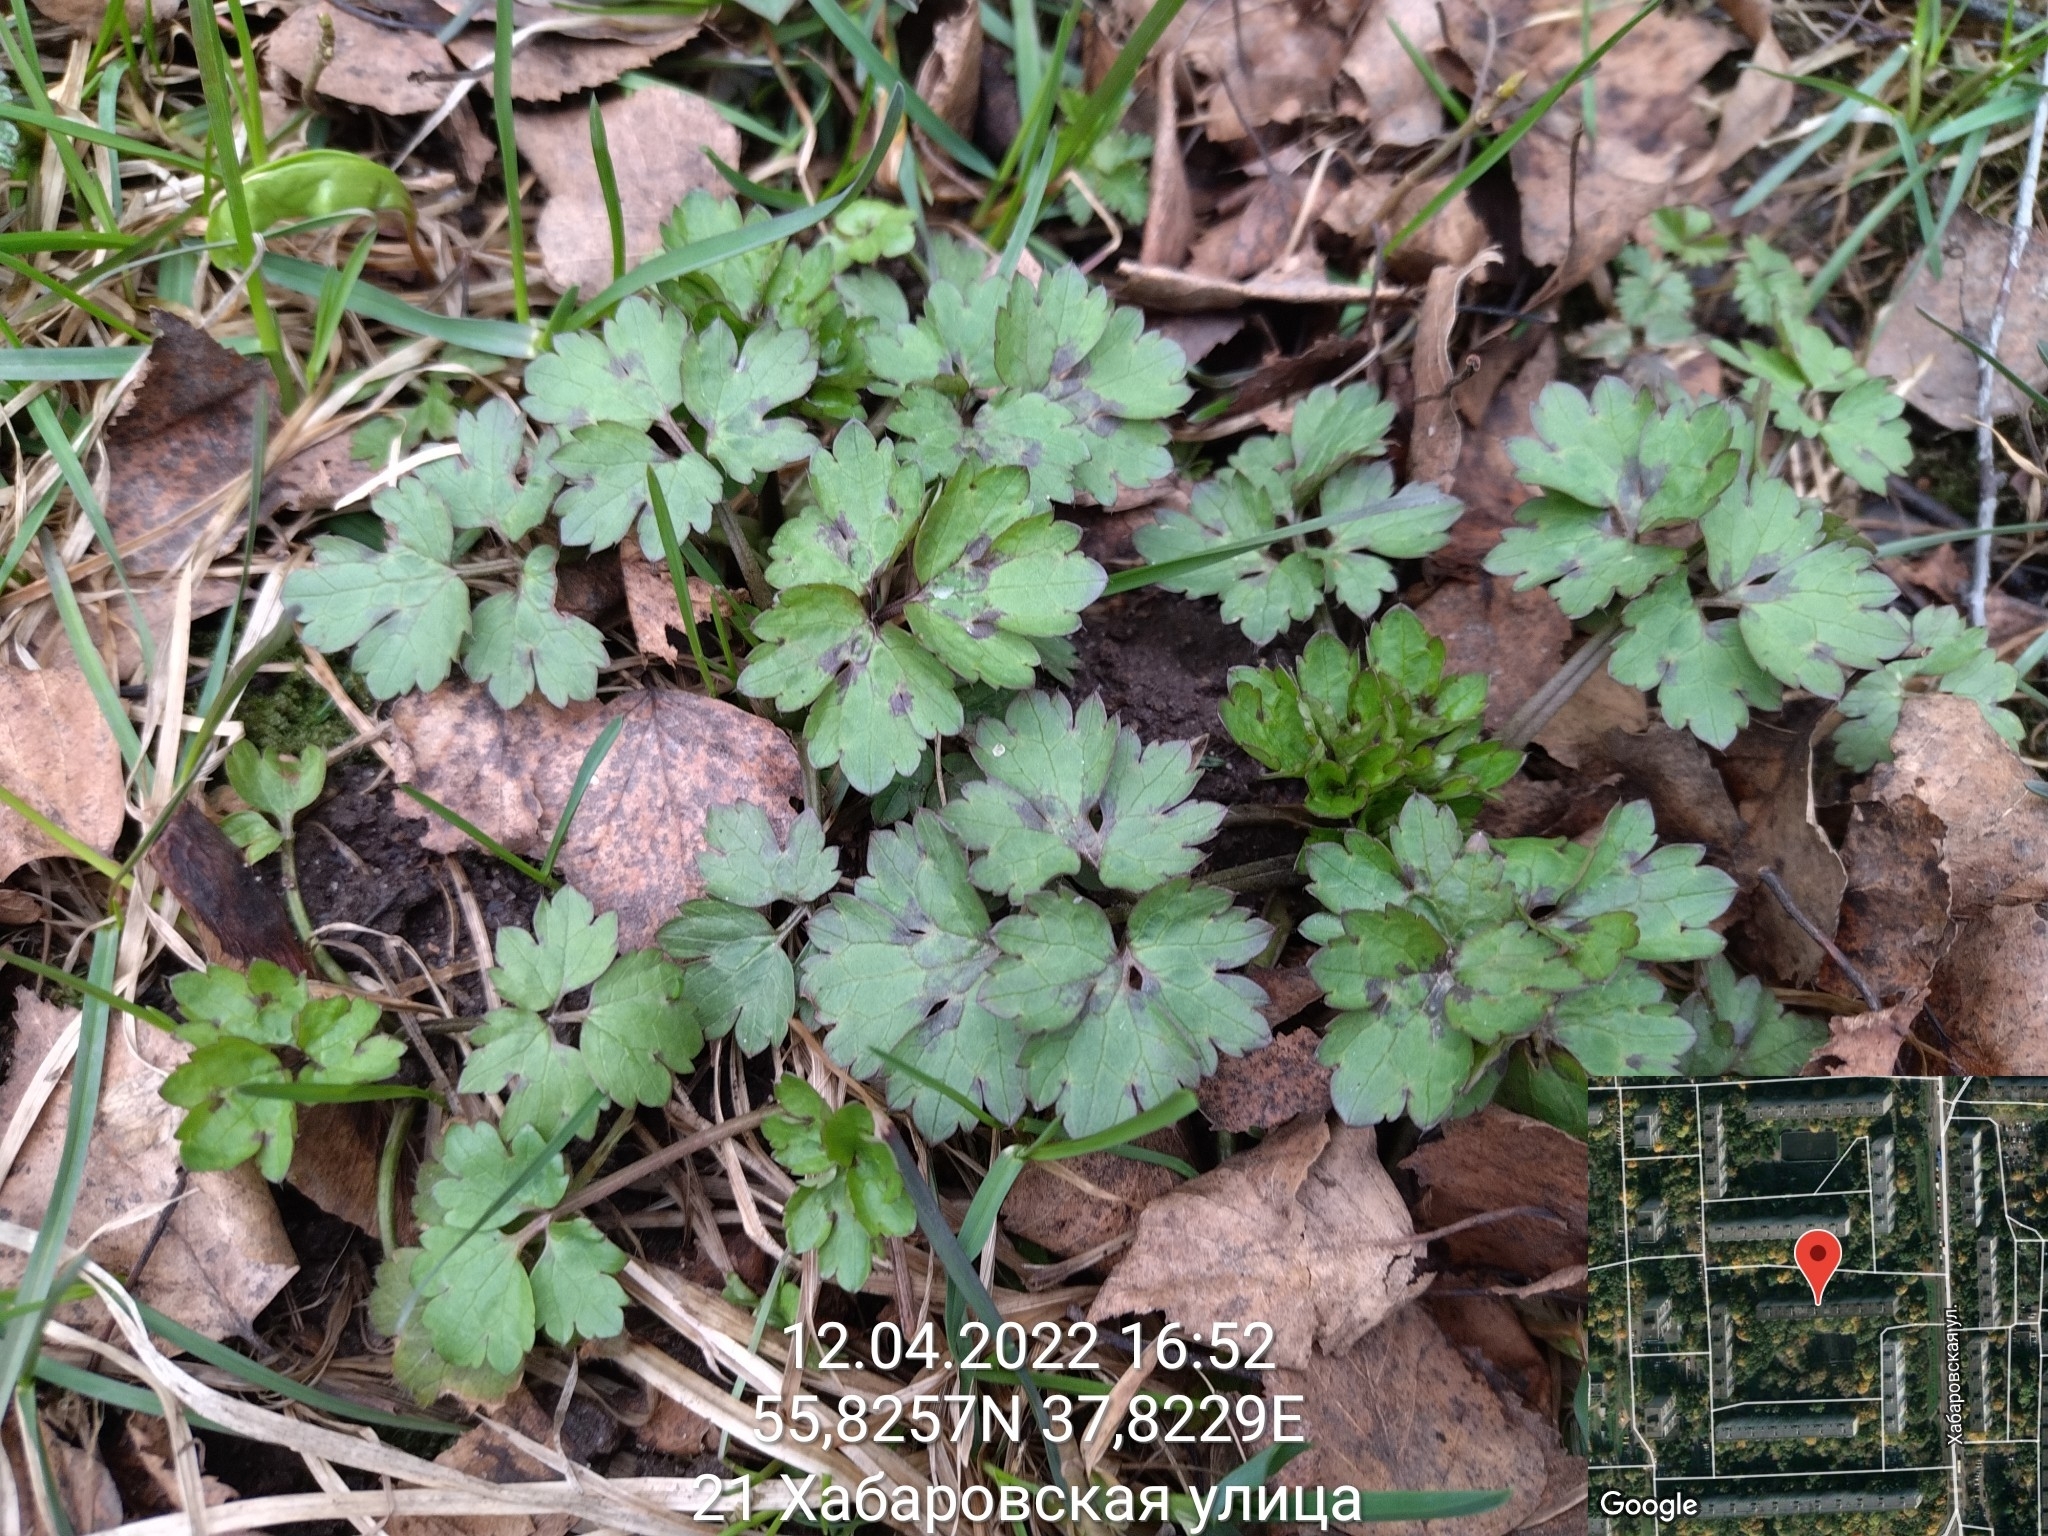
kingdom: Plantae
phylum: Tracheophyta
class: Magnoliopsida
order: Ranunculales
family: Ranunculaceae
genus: Ranunculus
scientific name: Ranunculus repens
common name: Creeping buttercup
